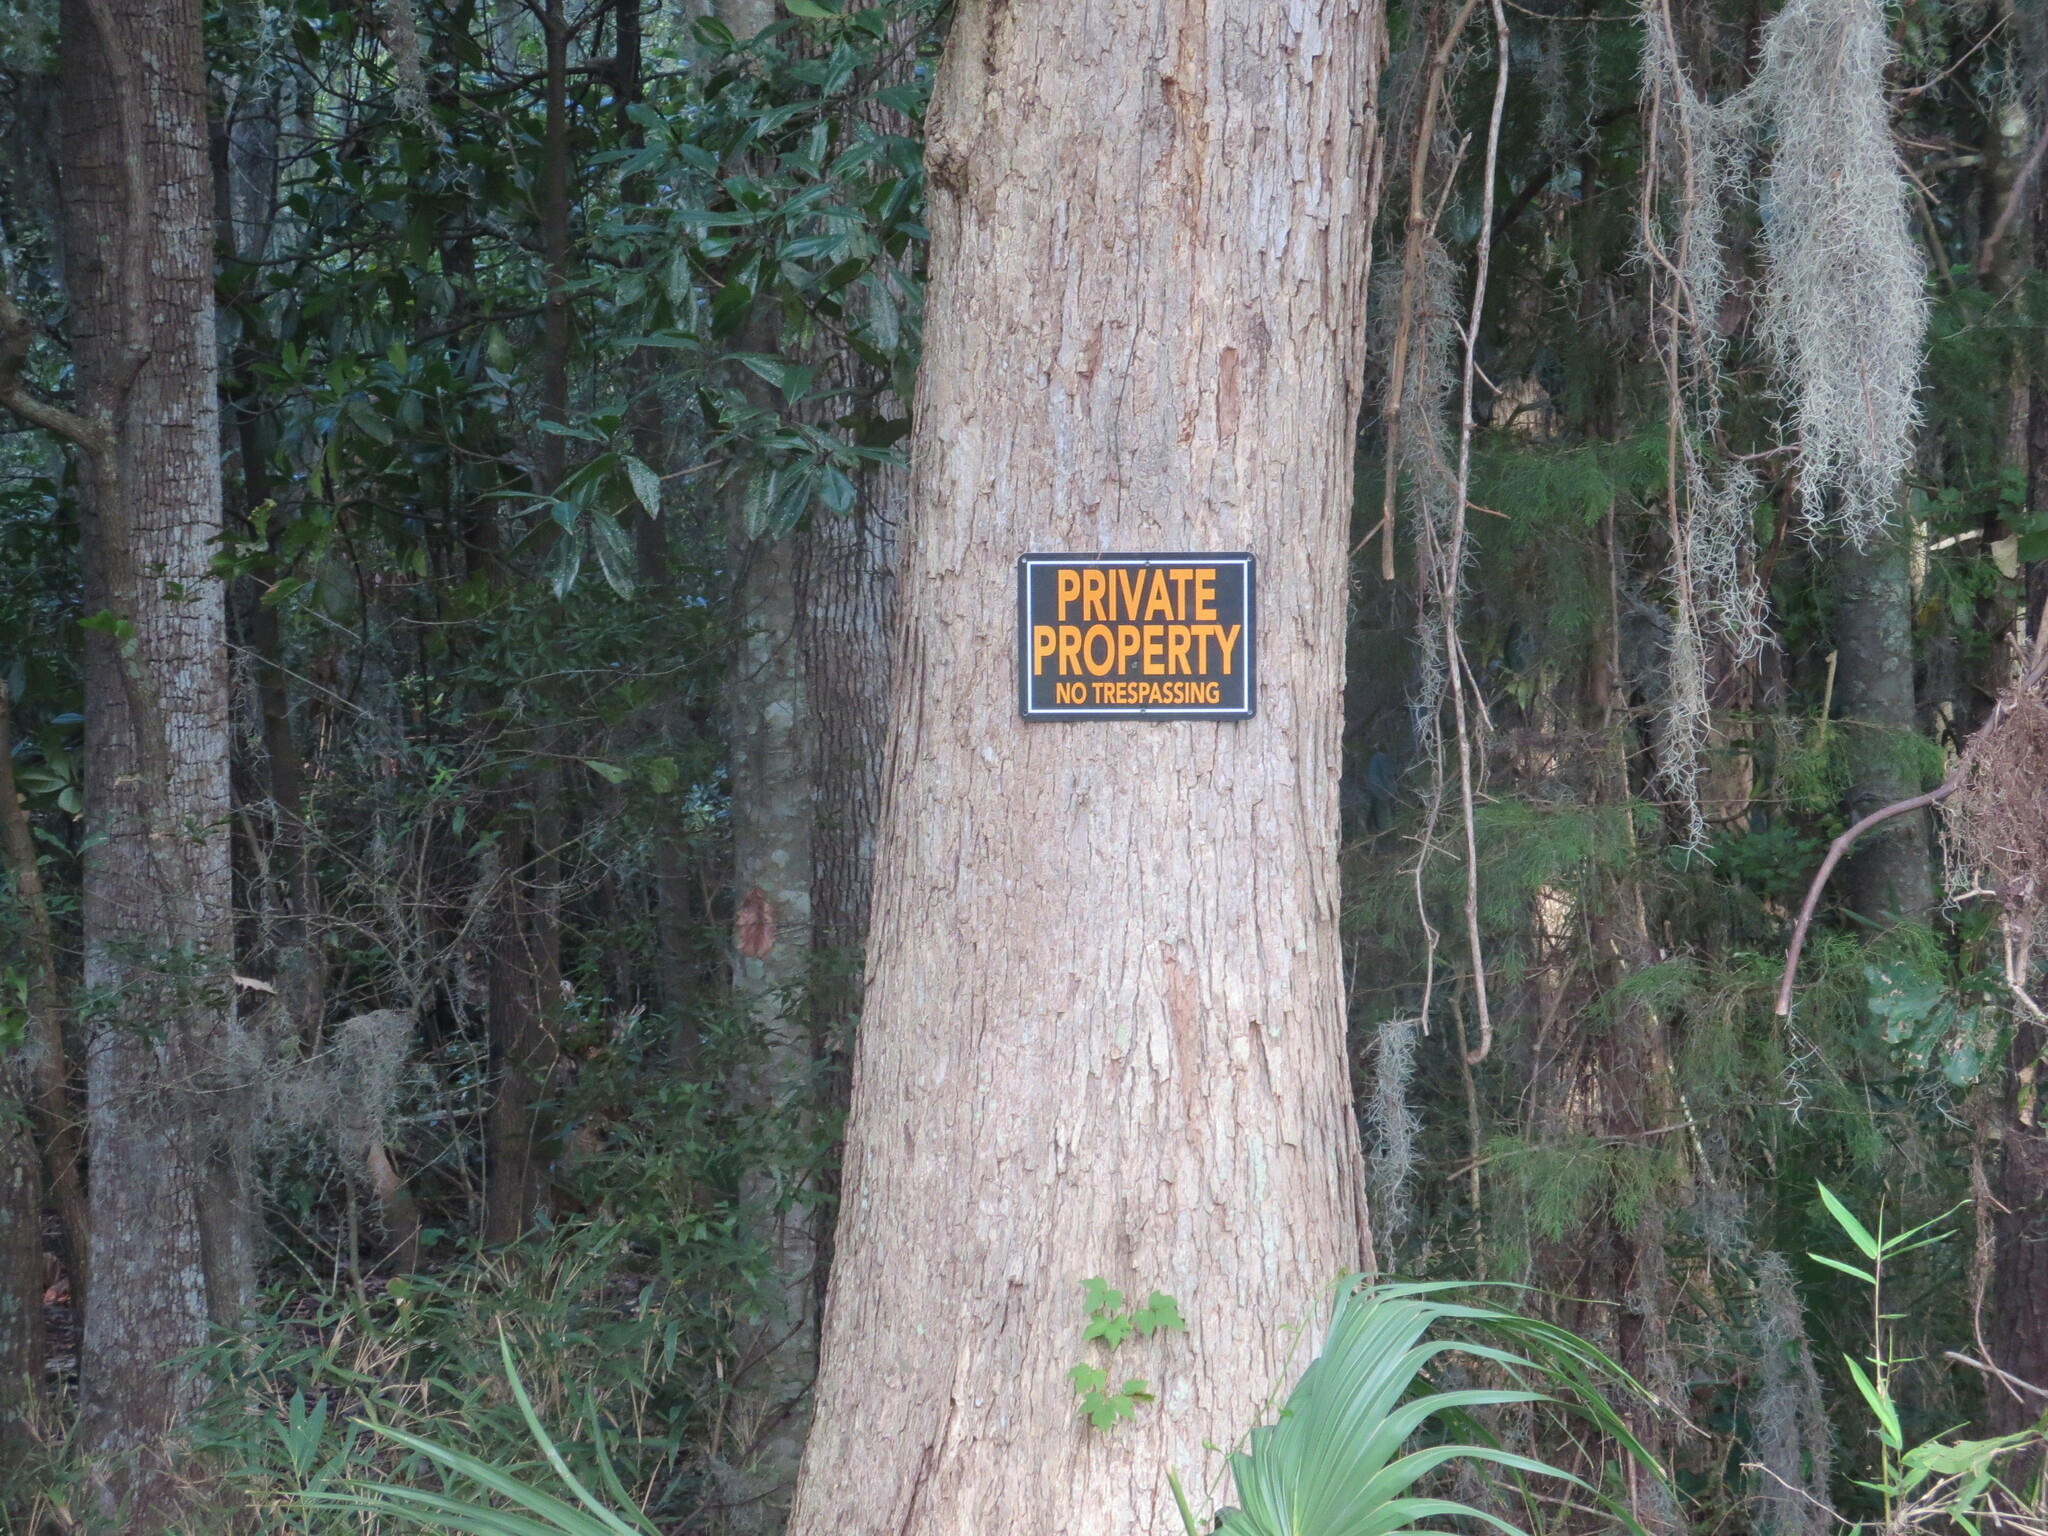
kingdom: Plantae
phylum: Tracheophyta
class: Magnoliopsida
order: Fagales
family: Fagaceae
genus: Quercus
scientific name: Quercus michauxii
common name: Swamp chestnut oak
